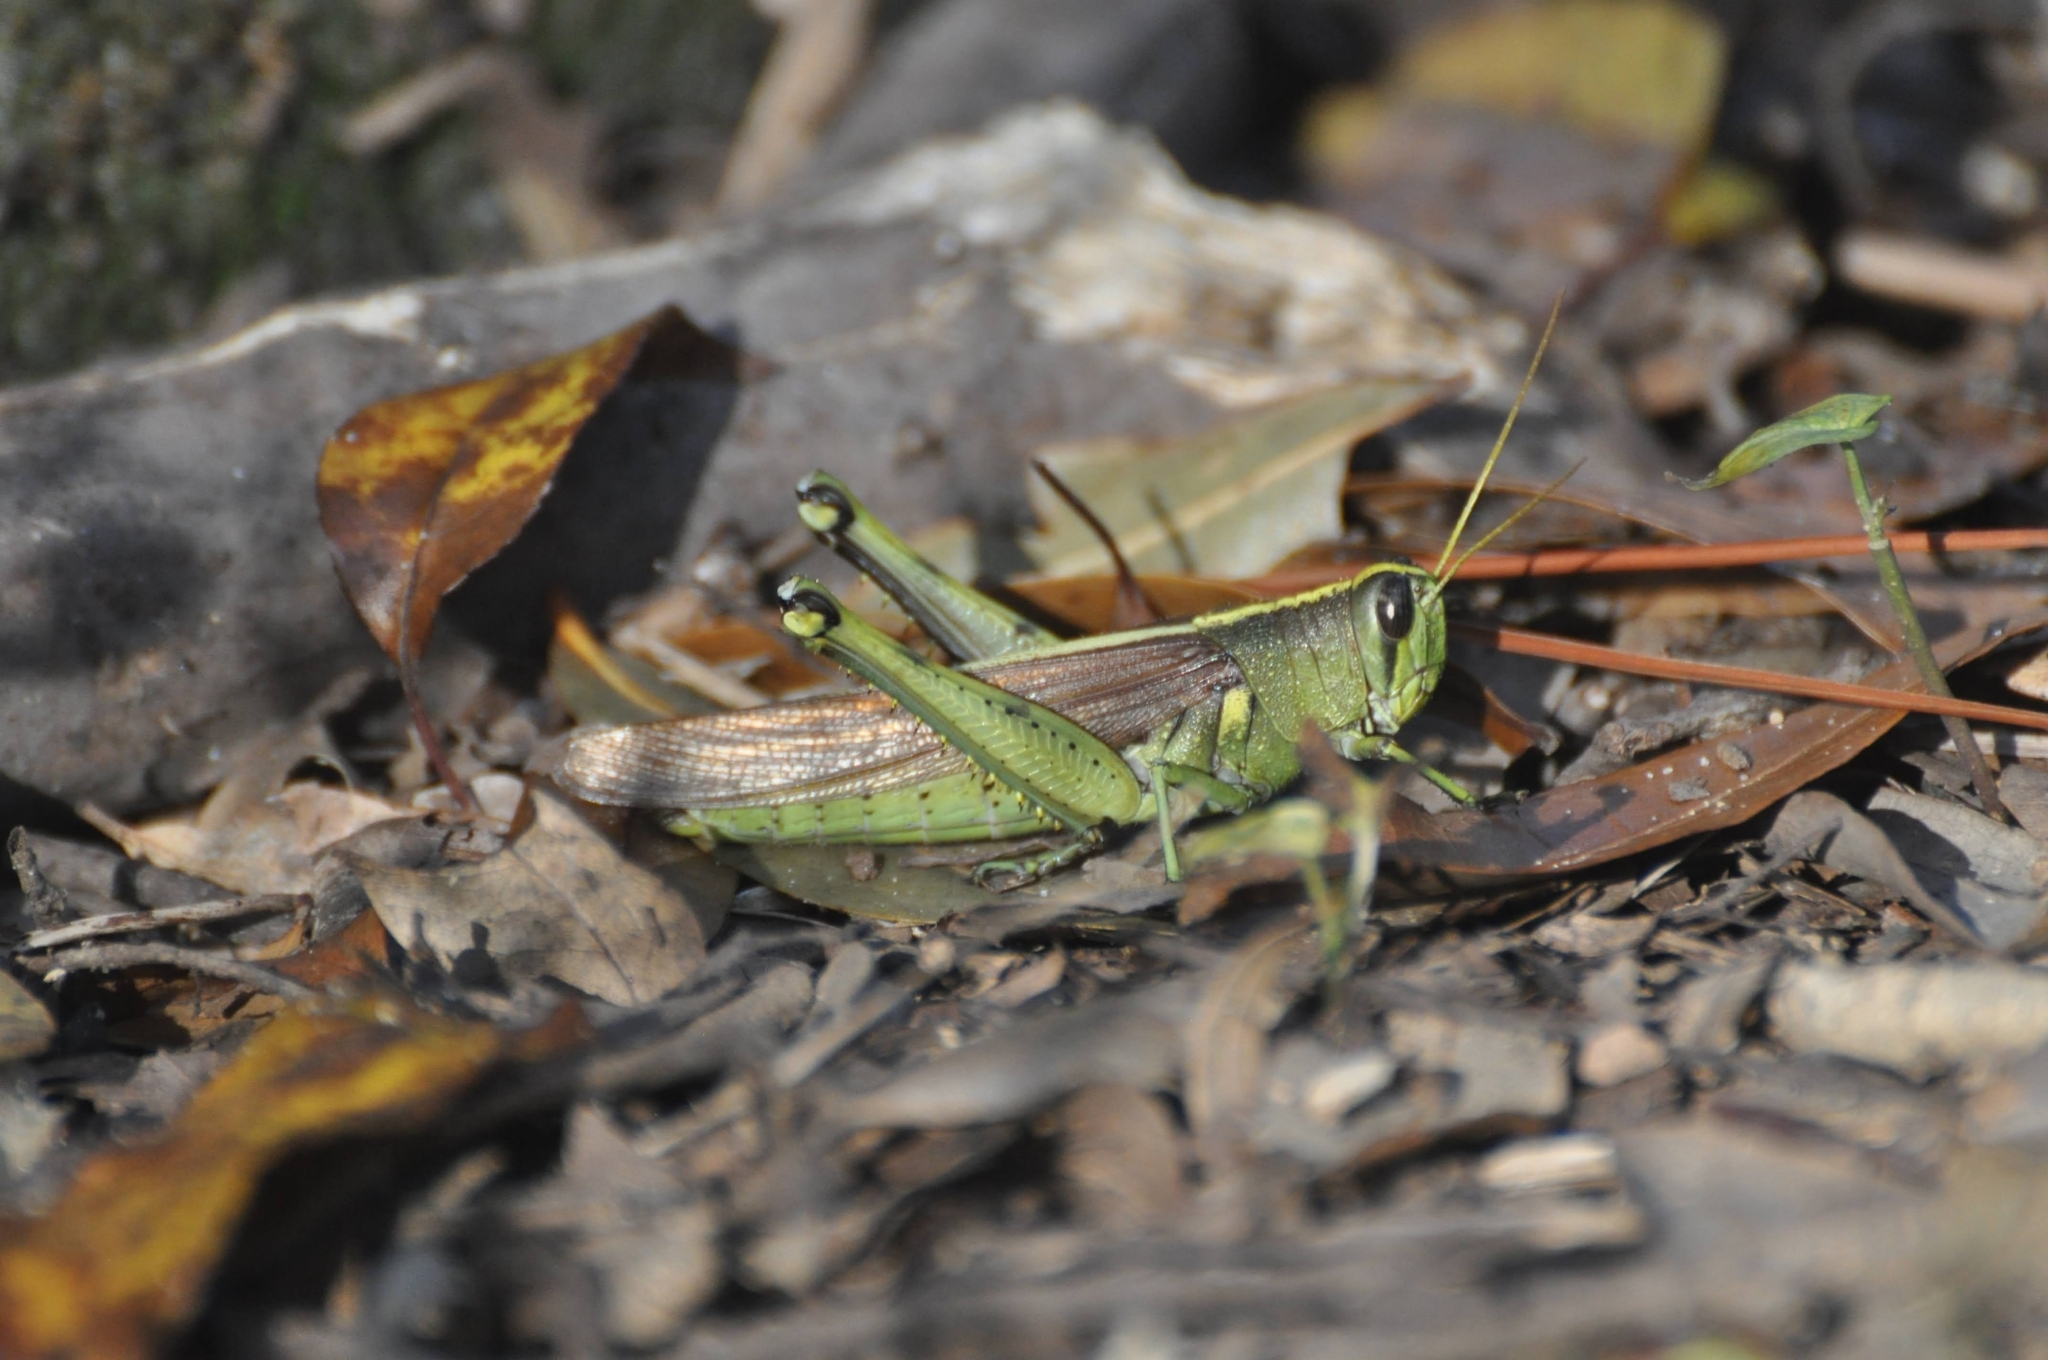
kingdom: Animalia
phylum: Arthropoda
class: Insecta
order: Orthoptera
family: Acrididae
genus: Schistocerca
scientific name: Schistocerca obscura
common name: Obscure bird grasshopper
